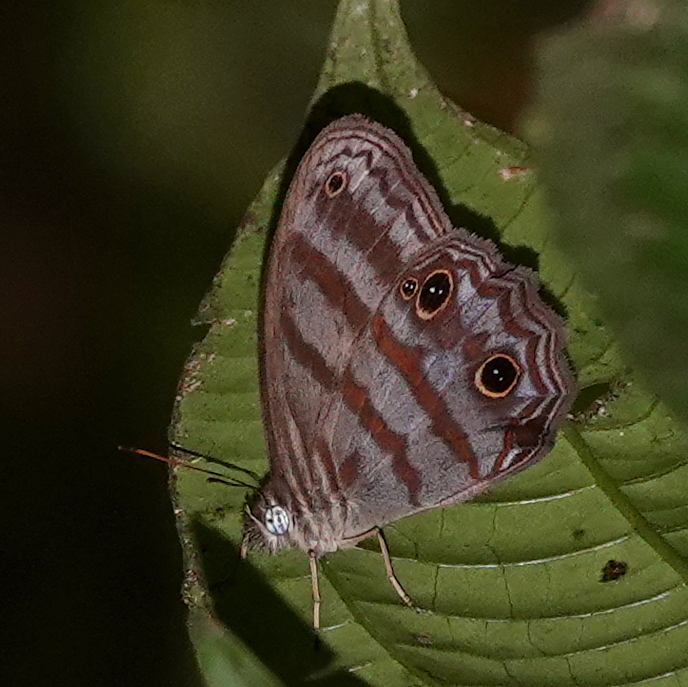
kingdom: Animalia
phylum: Arthropoda
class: Insecta
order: Lepidoptera
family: Nymphalidae
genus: Scriptor
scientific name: Scriptor sphenophorus
